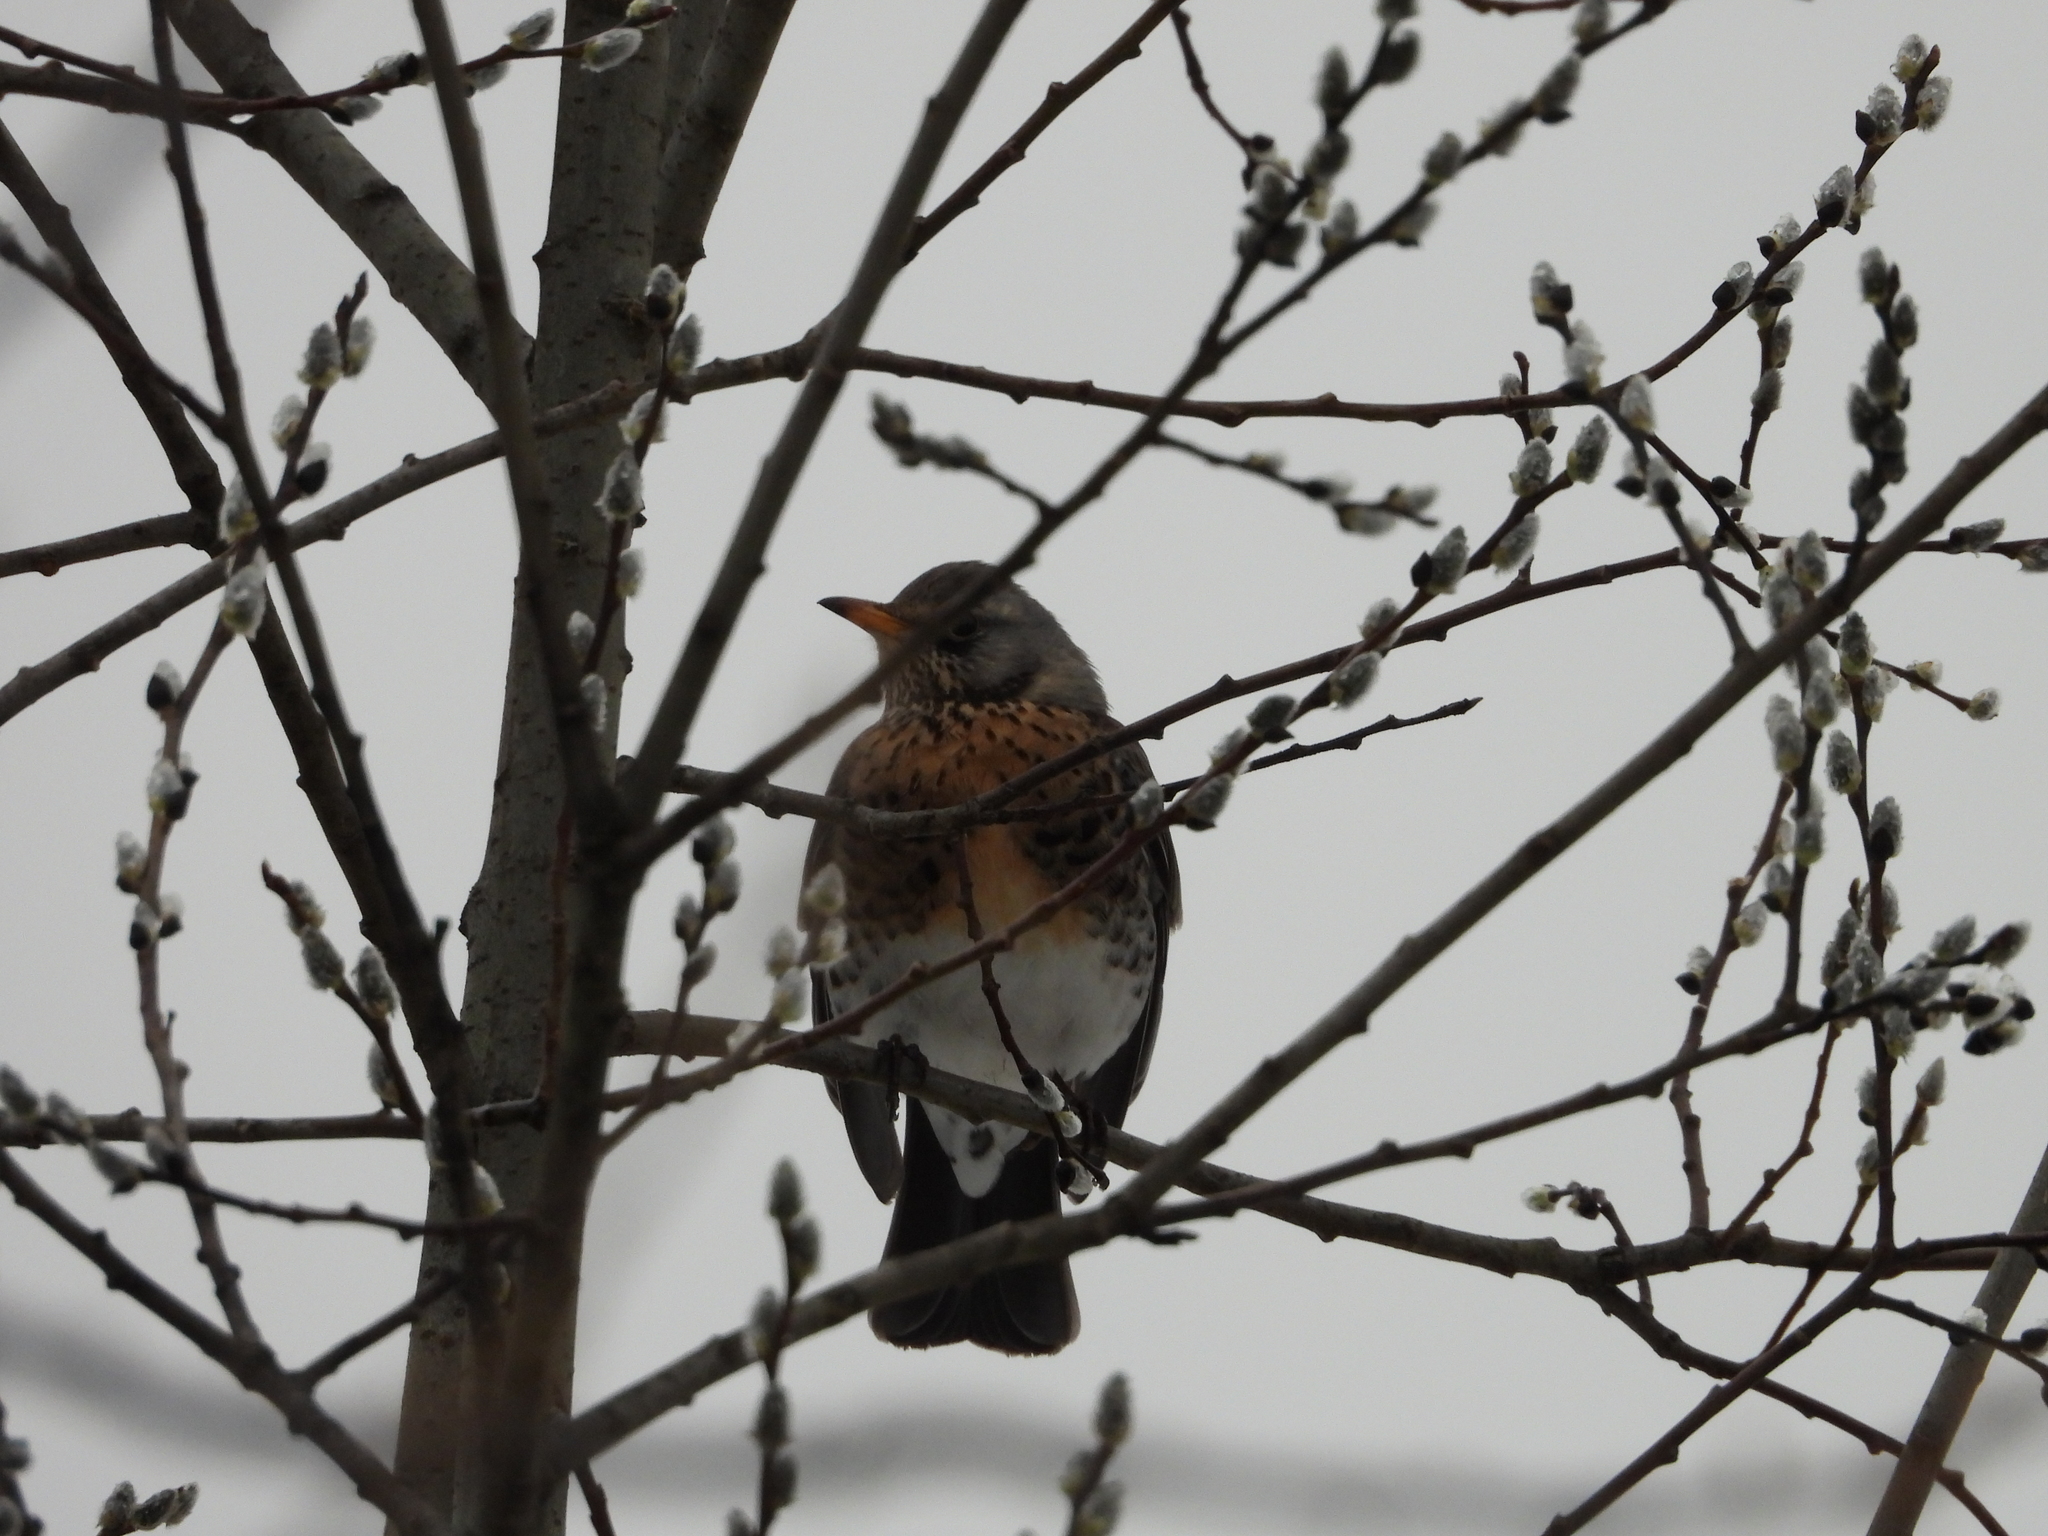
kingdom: Animalia
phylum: Chordata
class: Aves
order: Passeriformes
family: Turdidae
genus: Turdus
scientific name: Turdus pilaris
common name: Fieldfare
